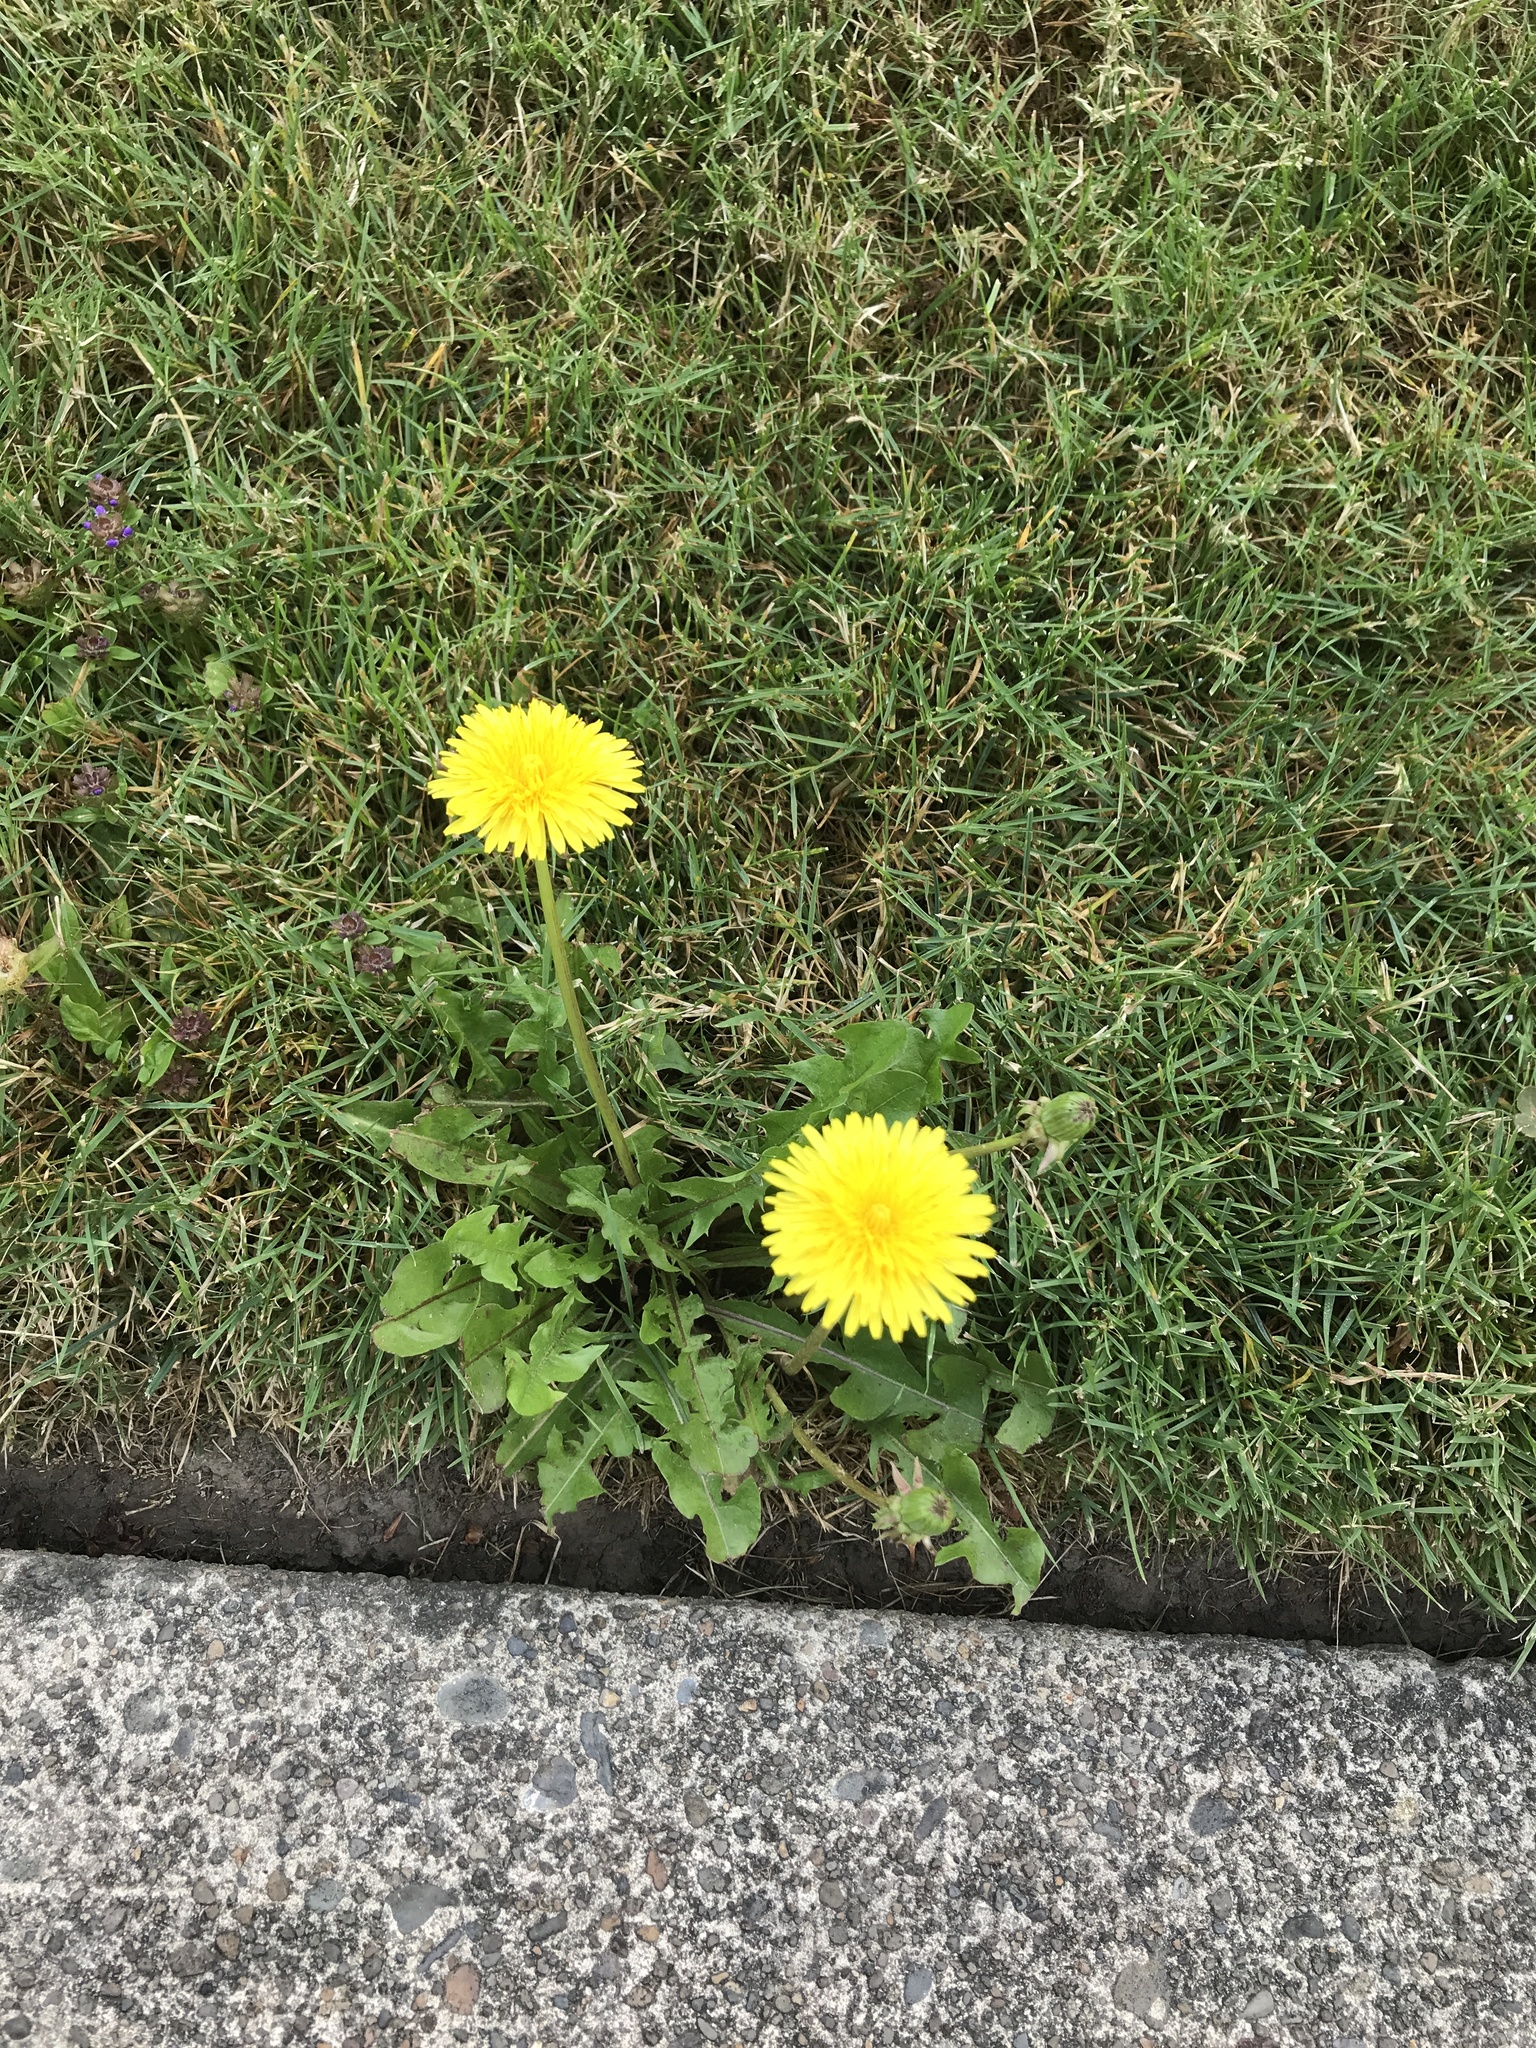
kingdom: Plantae
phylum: Tracheophyta
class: Magnoliopsida
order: Asterales
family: Asteraceae
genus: Taraxacum
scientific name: Taraxacum officinale
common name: Common dandelion
